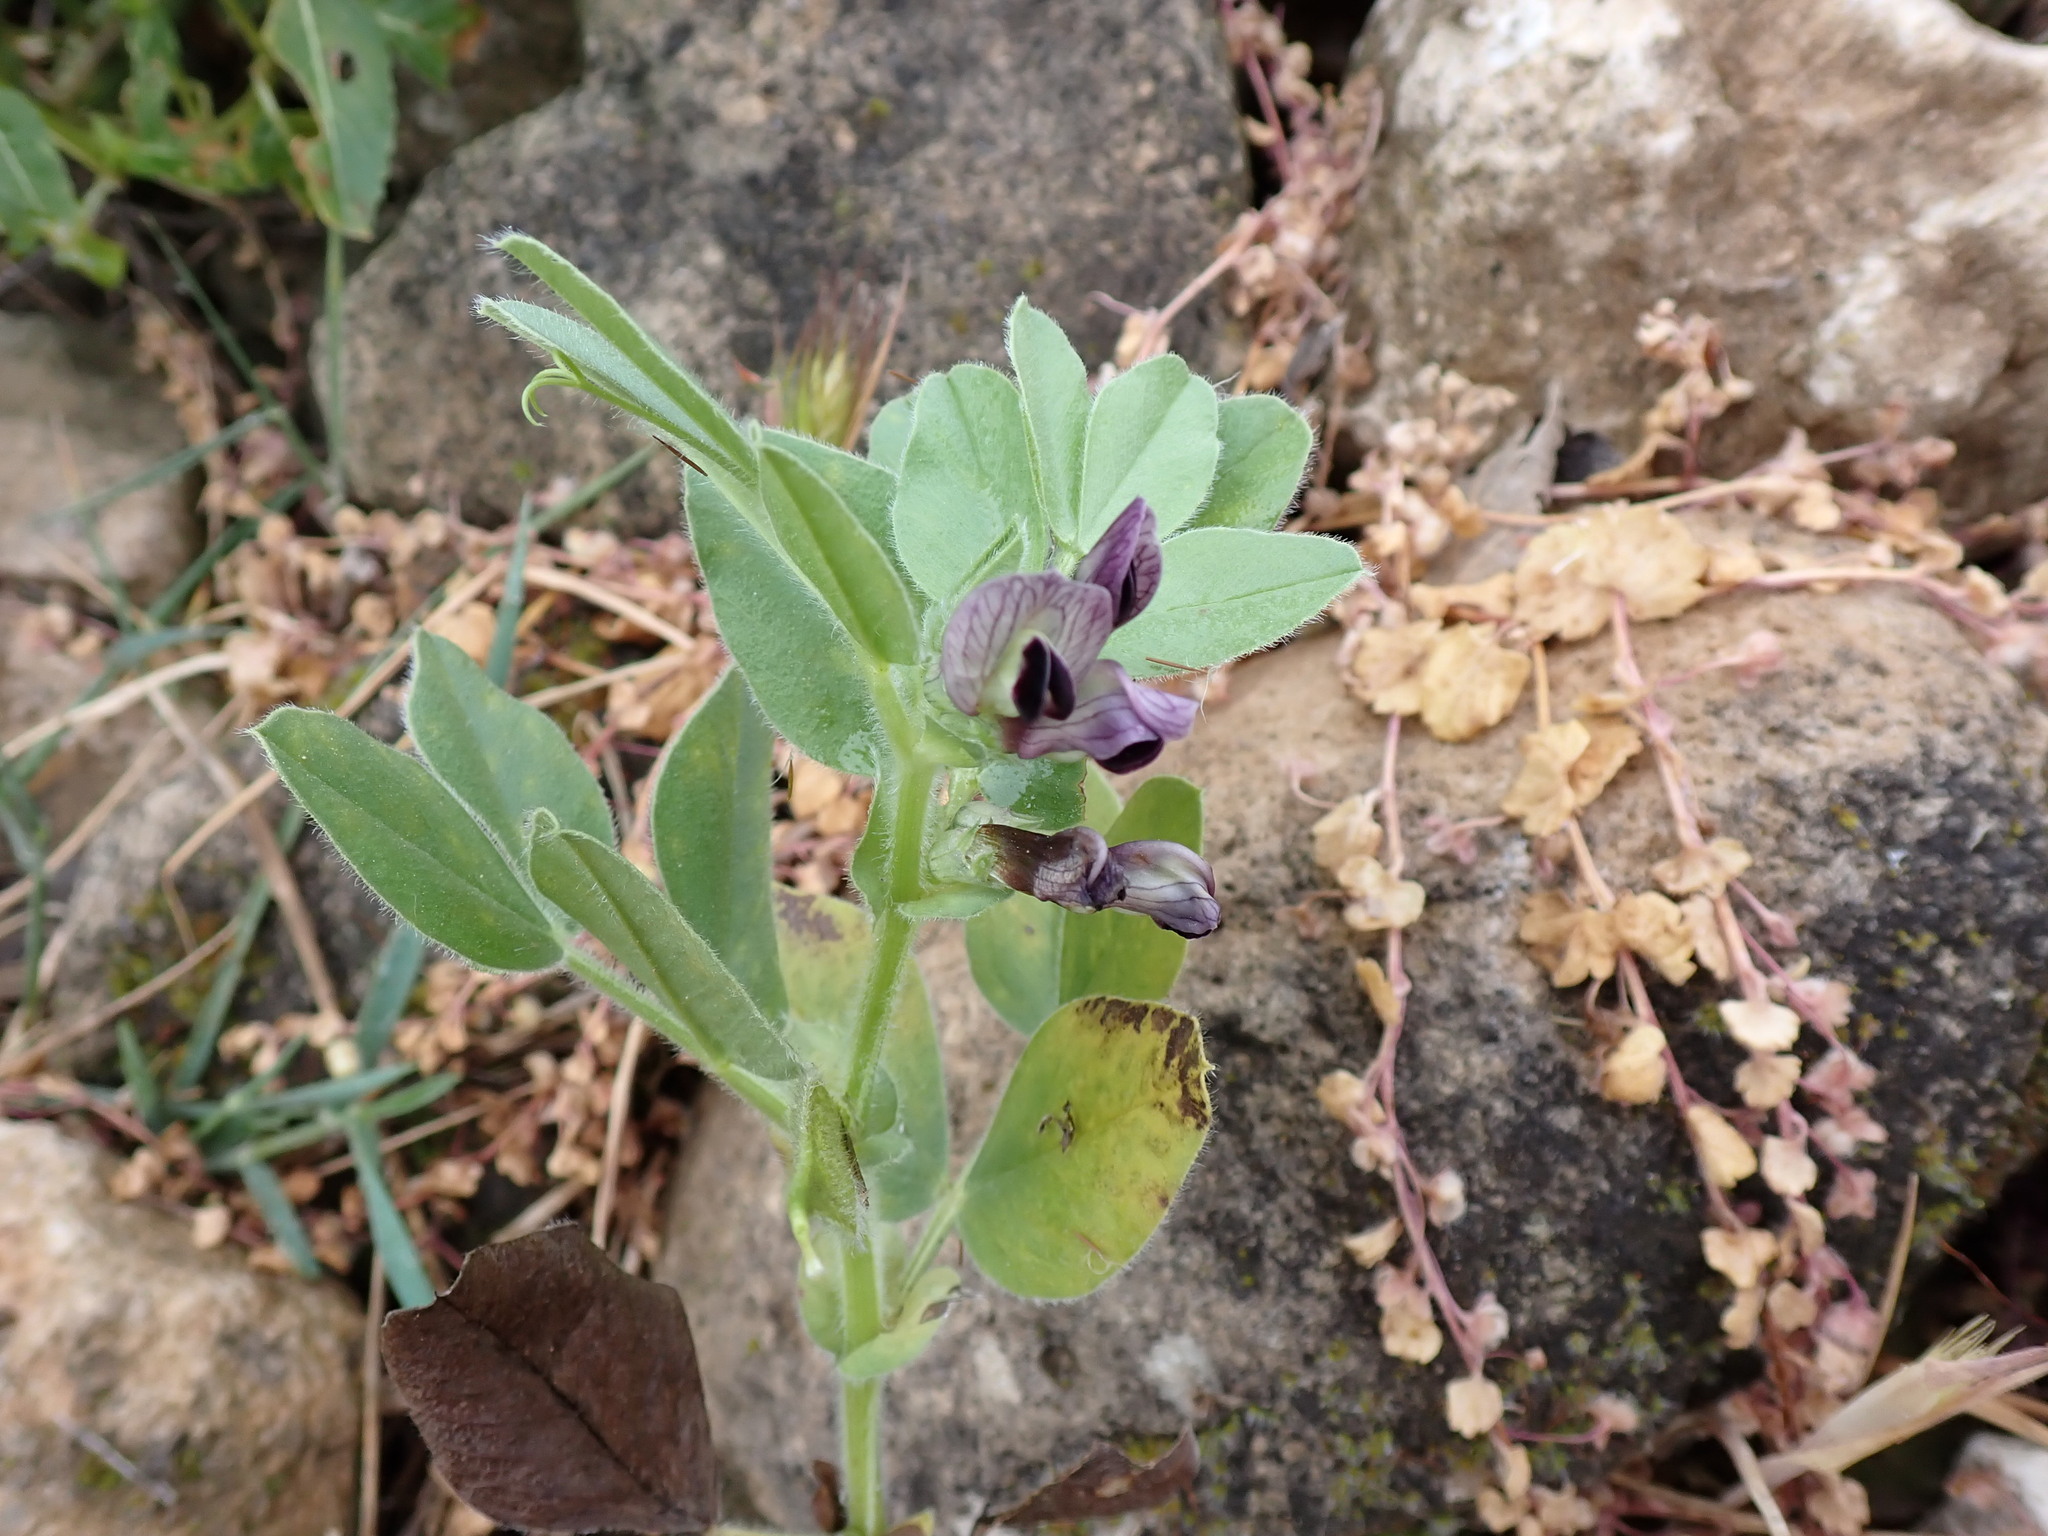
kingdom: Plantae
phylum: Tracheophyta
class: Magnoliopsida
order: Fabales
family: Fabaceae
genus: Vicia
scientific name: Vicia johannis
